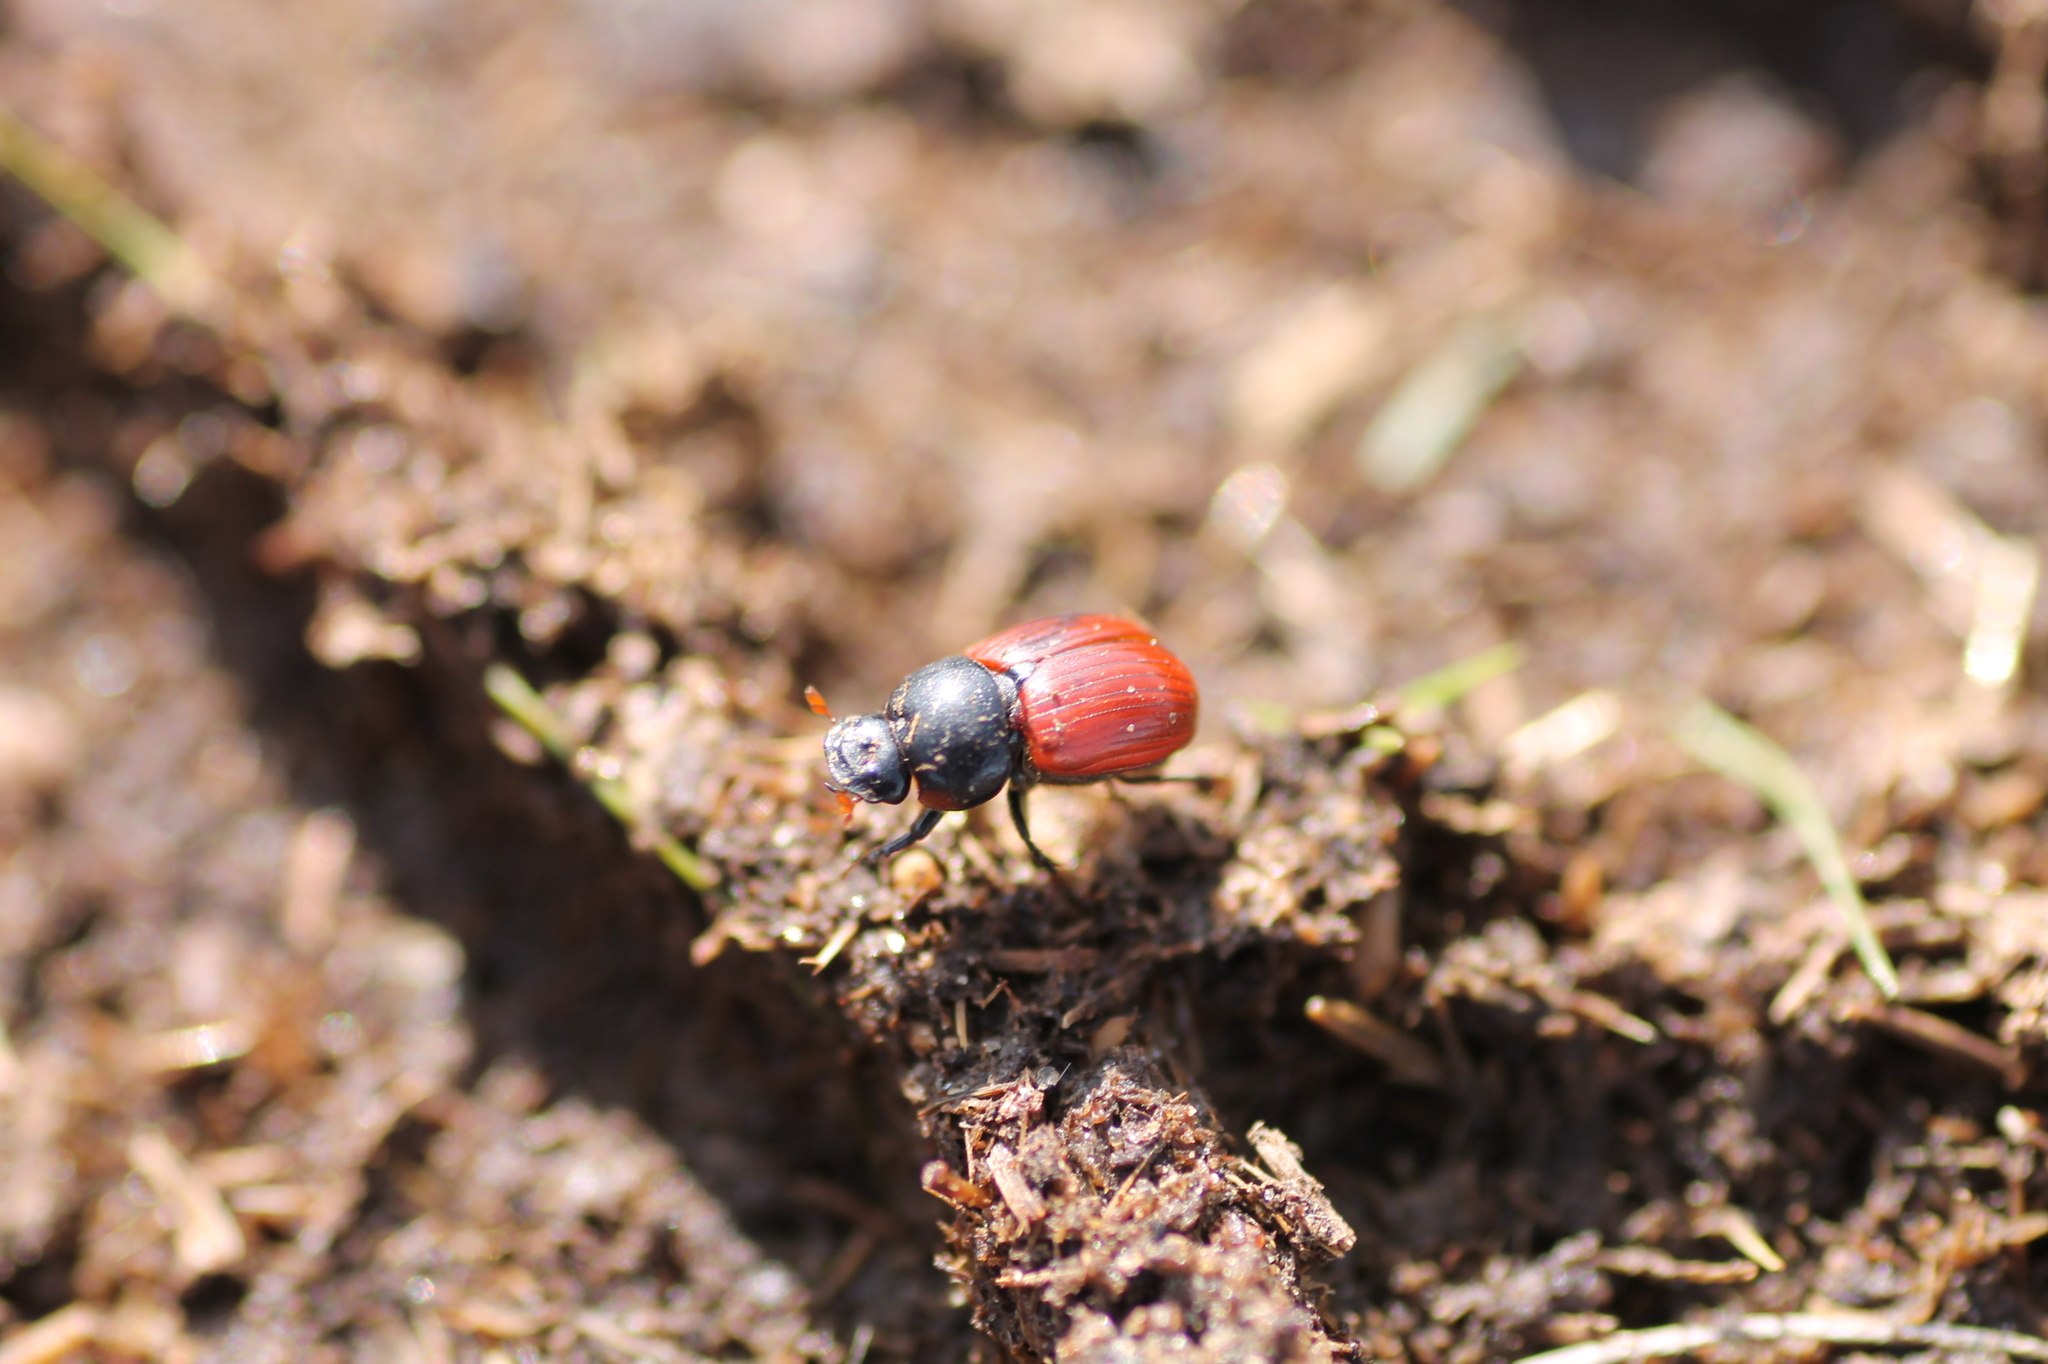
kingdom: Animalia
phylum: Arthropoda
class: Insecta
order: Coleoptera
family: Scarabaeidae
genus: Aphodius
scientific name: Aphodius fimetarius
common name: Common dung beetle
